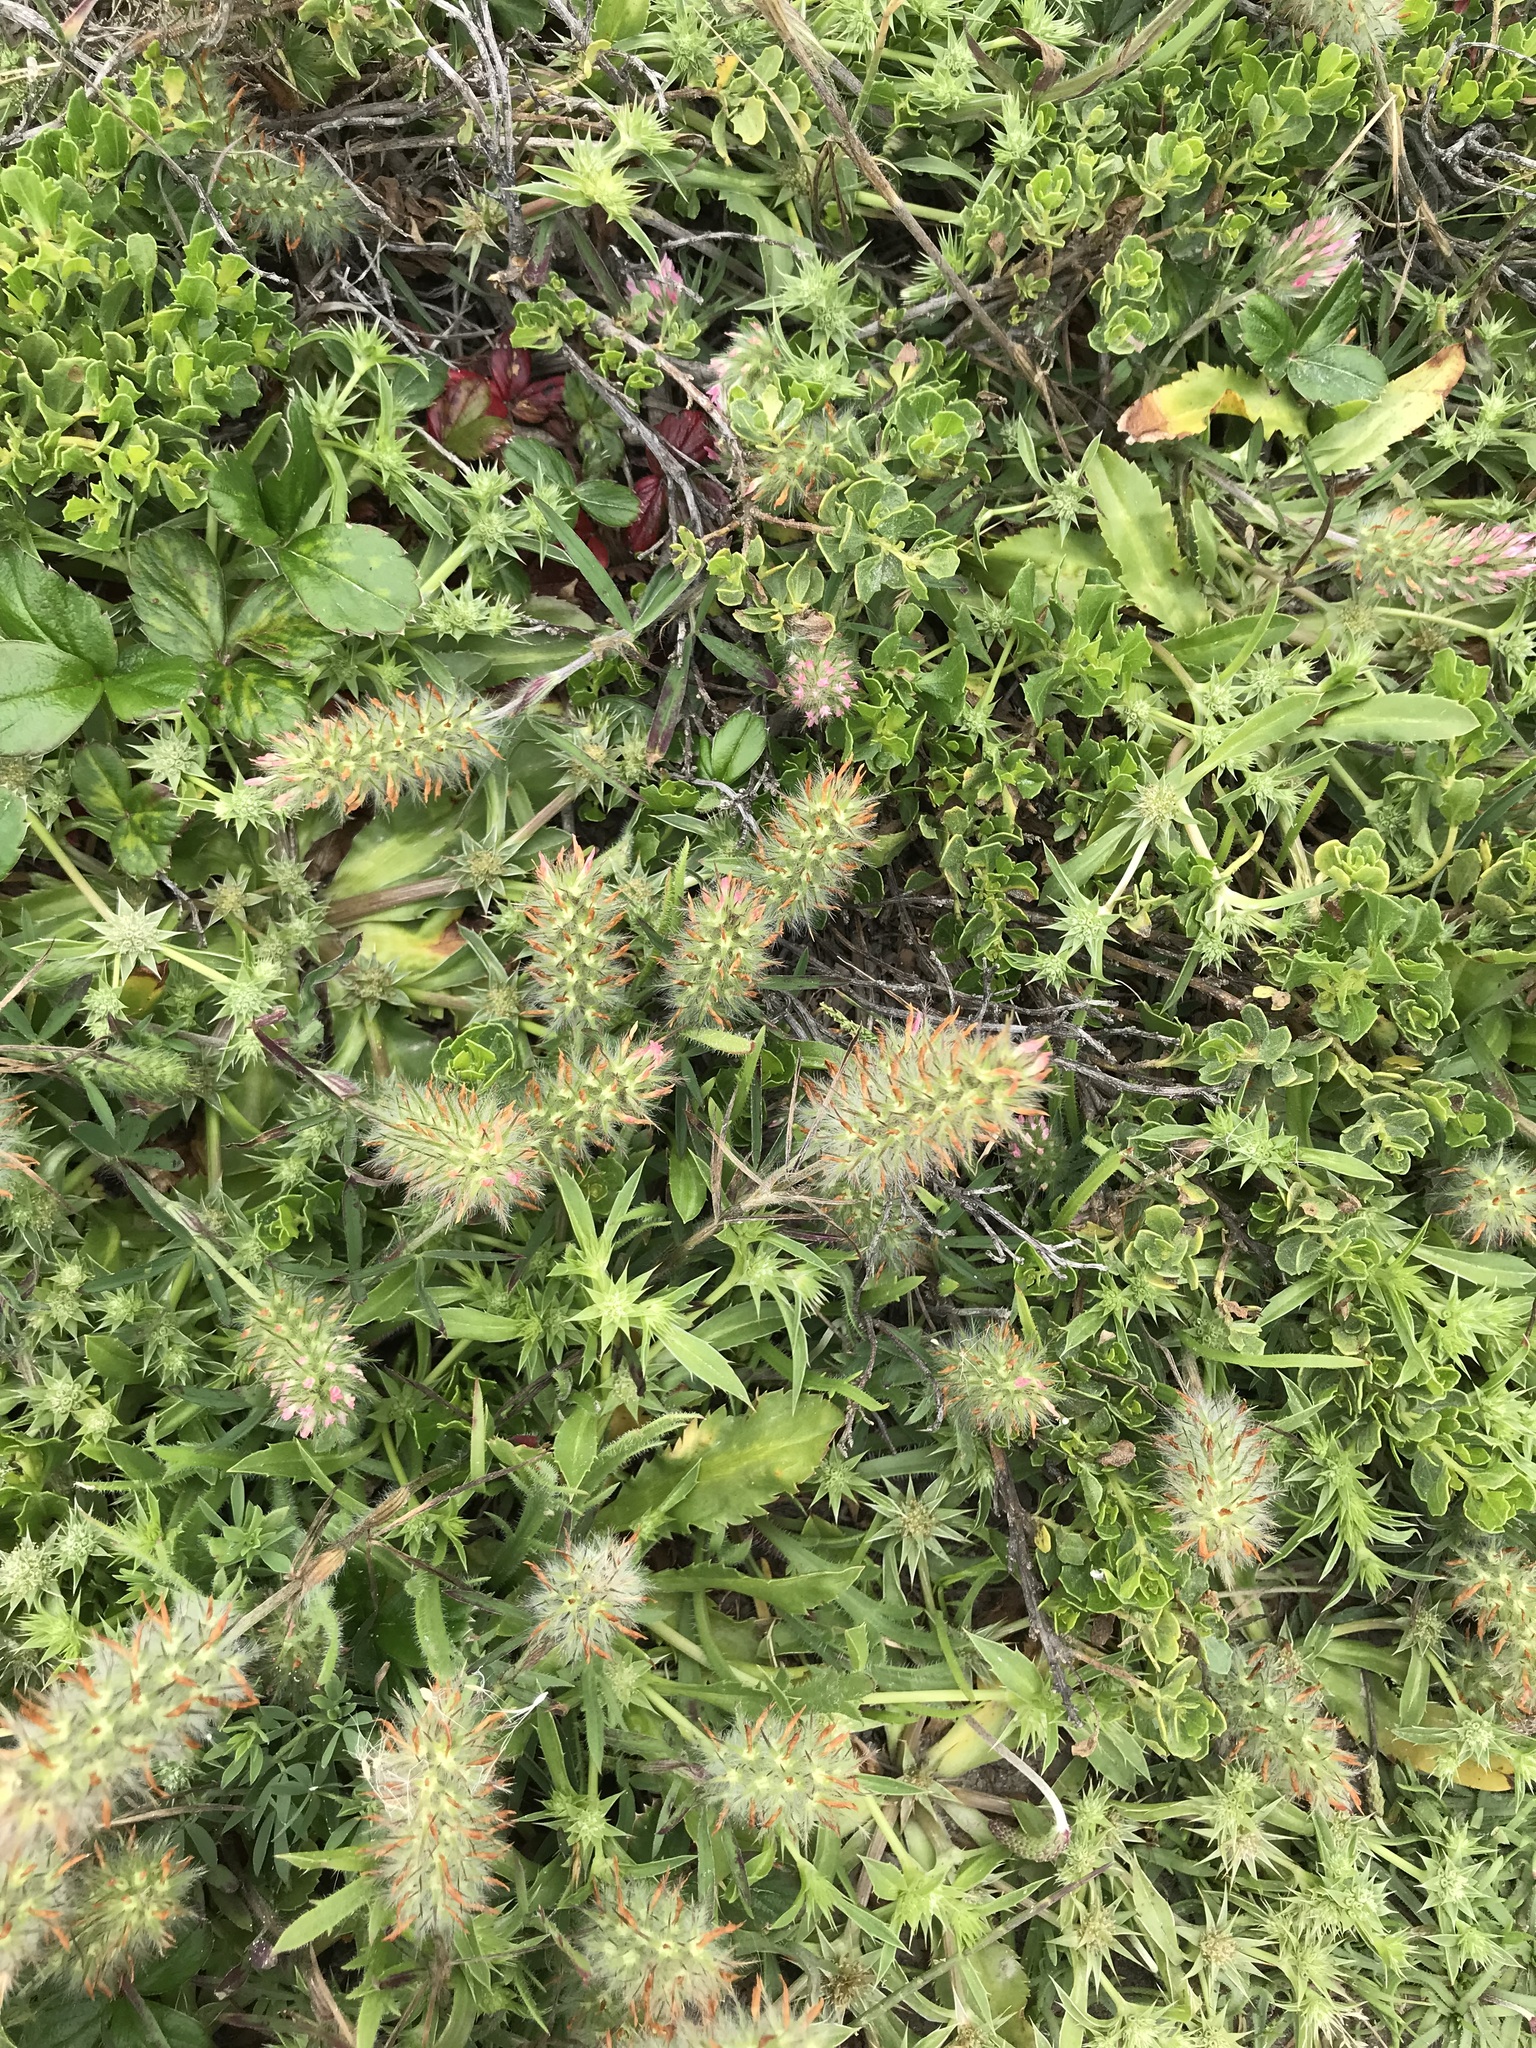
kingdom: Plantae
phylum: Tracheophyta
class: Magnoliopsida
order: Fabales
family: Fabaceae
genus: Trifolium
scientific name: Trifolium angustifolium
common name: Narrow clover
